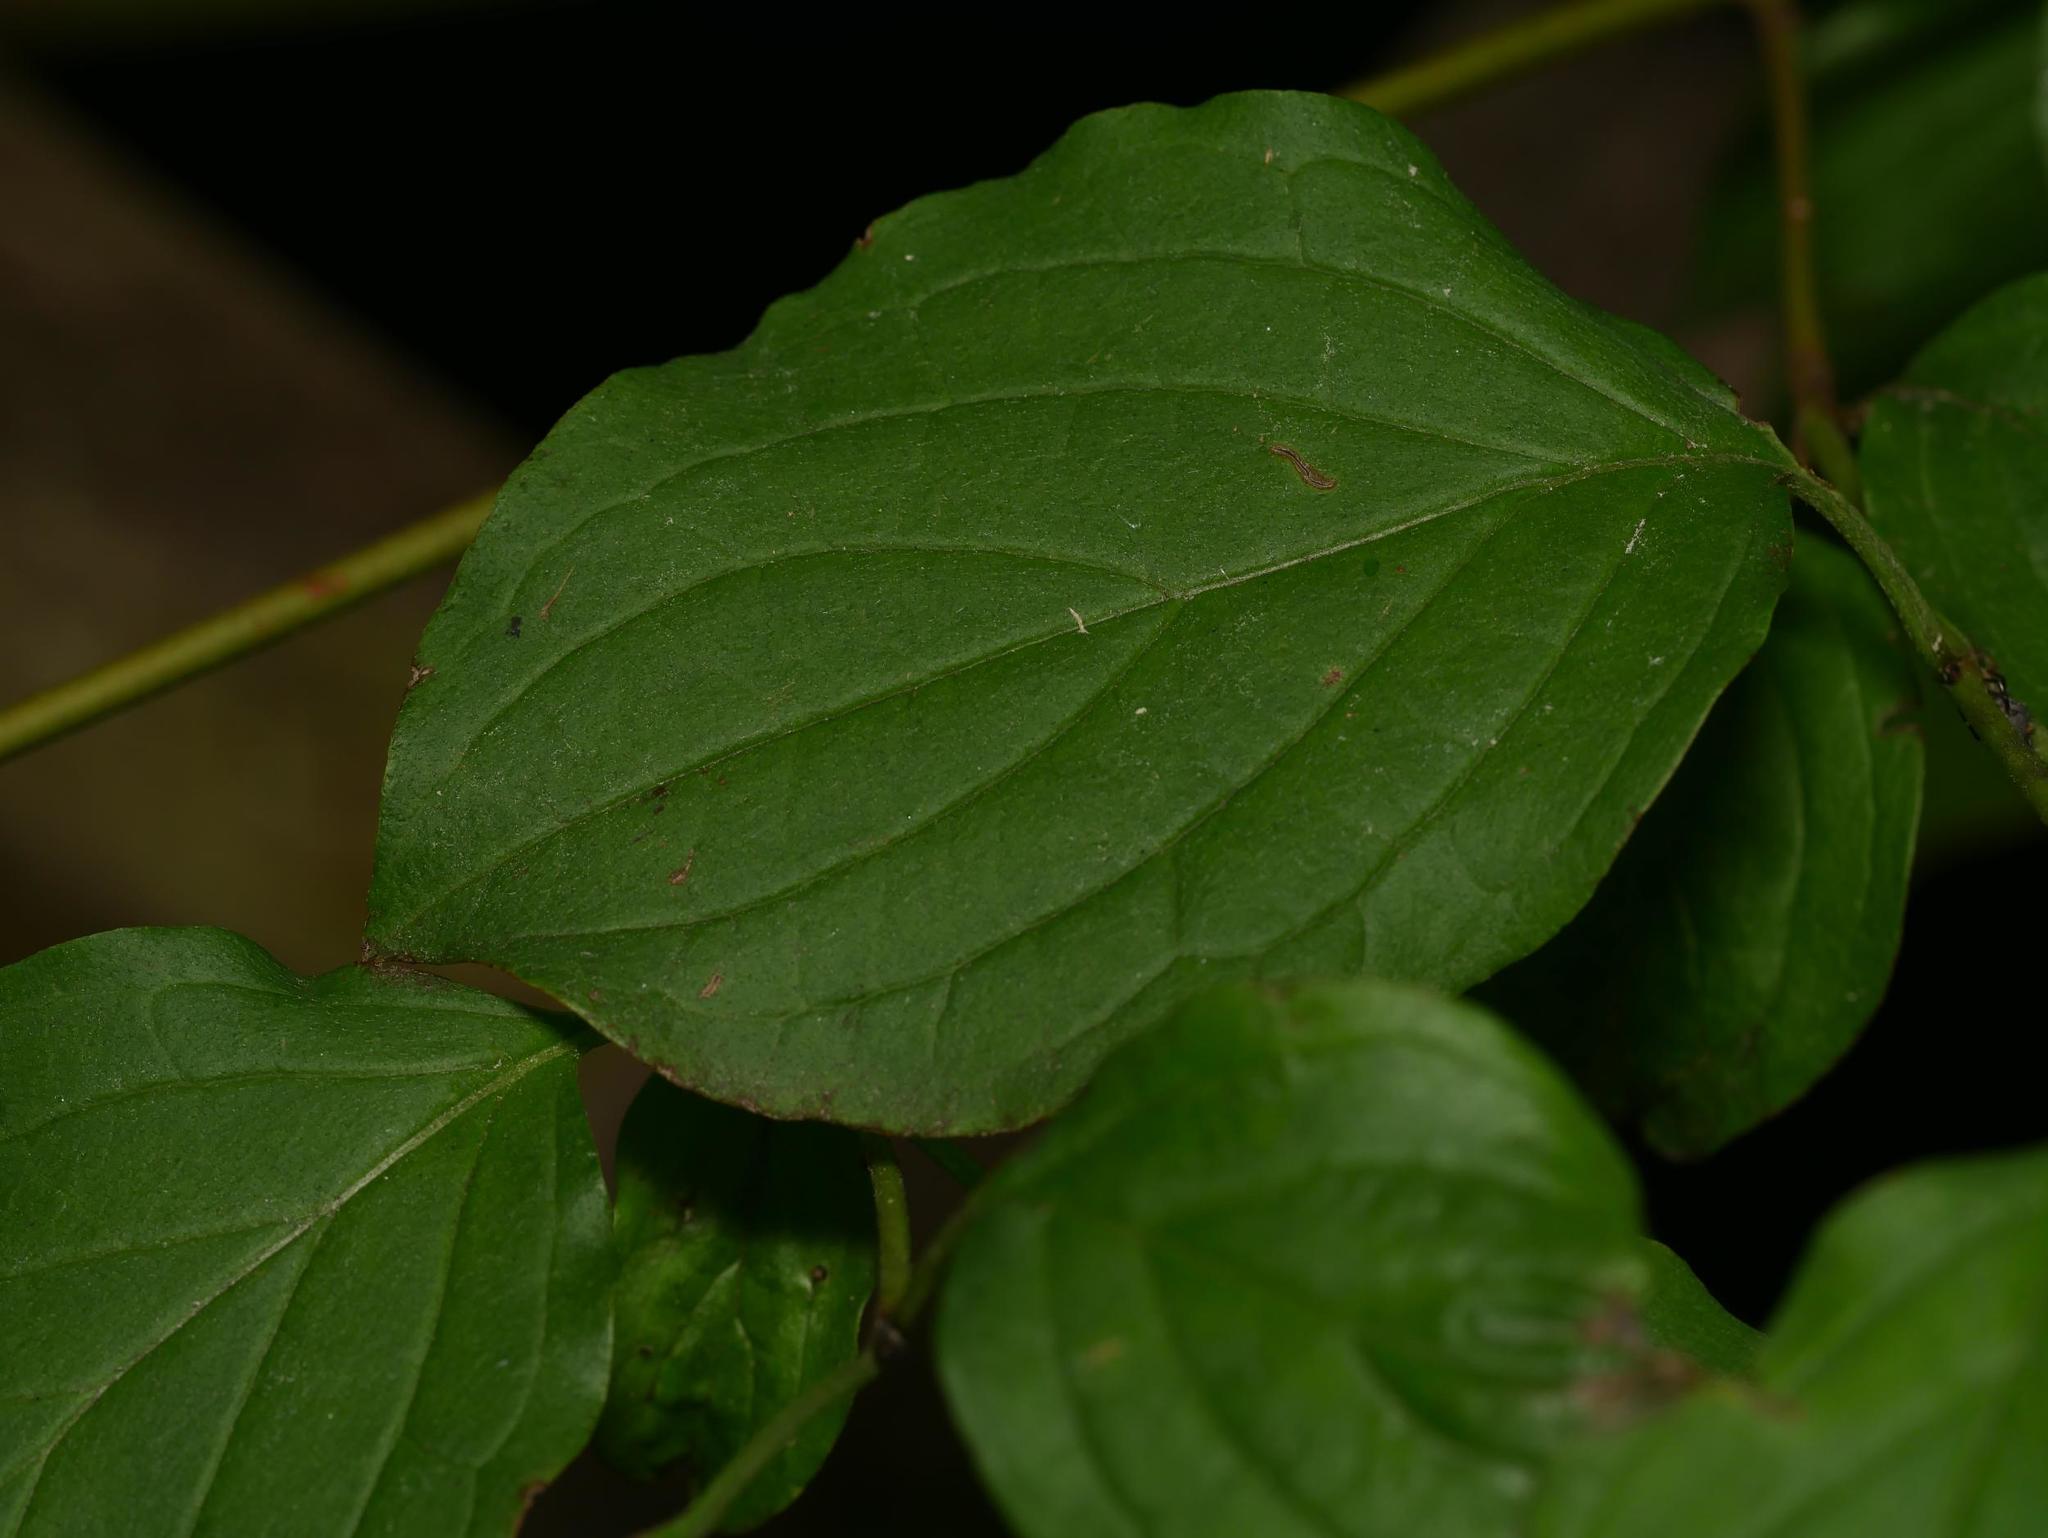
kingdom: Plantae
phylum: Tracheophyta
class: Magnoliopsida
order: Cornales
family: Cornaceae
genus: Cornus
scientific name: Cornus sanguinea
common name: Dogwood
